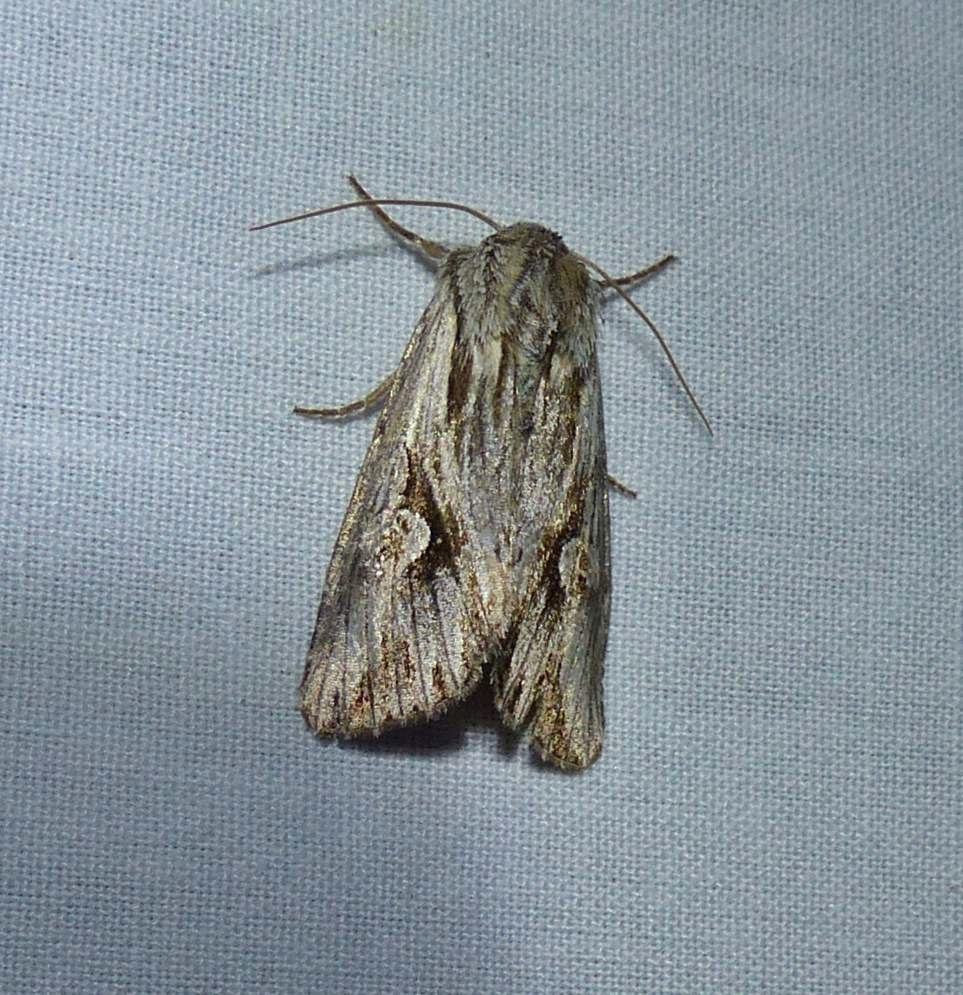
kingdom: Animalia
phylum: Arthropoda
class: Insecta
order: Lepidoptera
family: Noctuidae
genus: Nedra
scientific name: Nedra ramosula
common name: Gray half-spot
